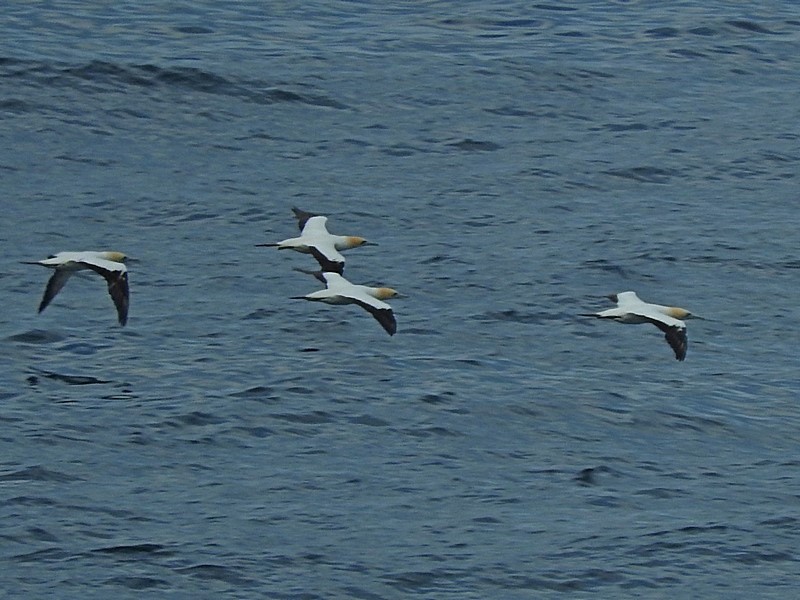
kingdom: Animalia
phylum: Chordata
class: Aves
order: Suliformes
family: Sulidae
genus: Morus
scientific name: Morus serrator
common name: Australasian gannet
